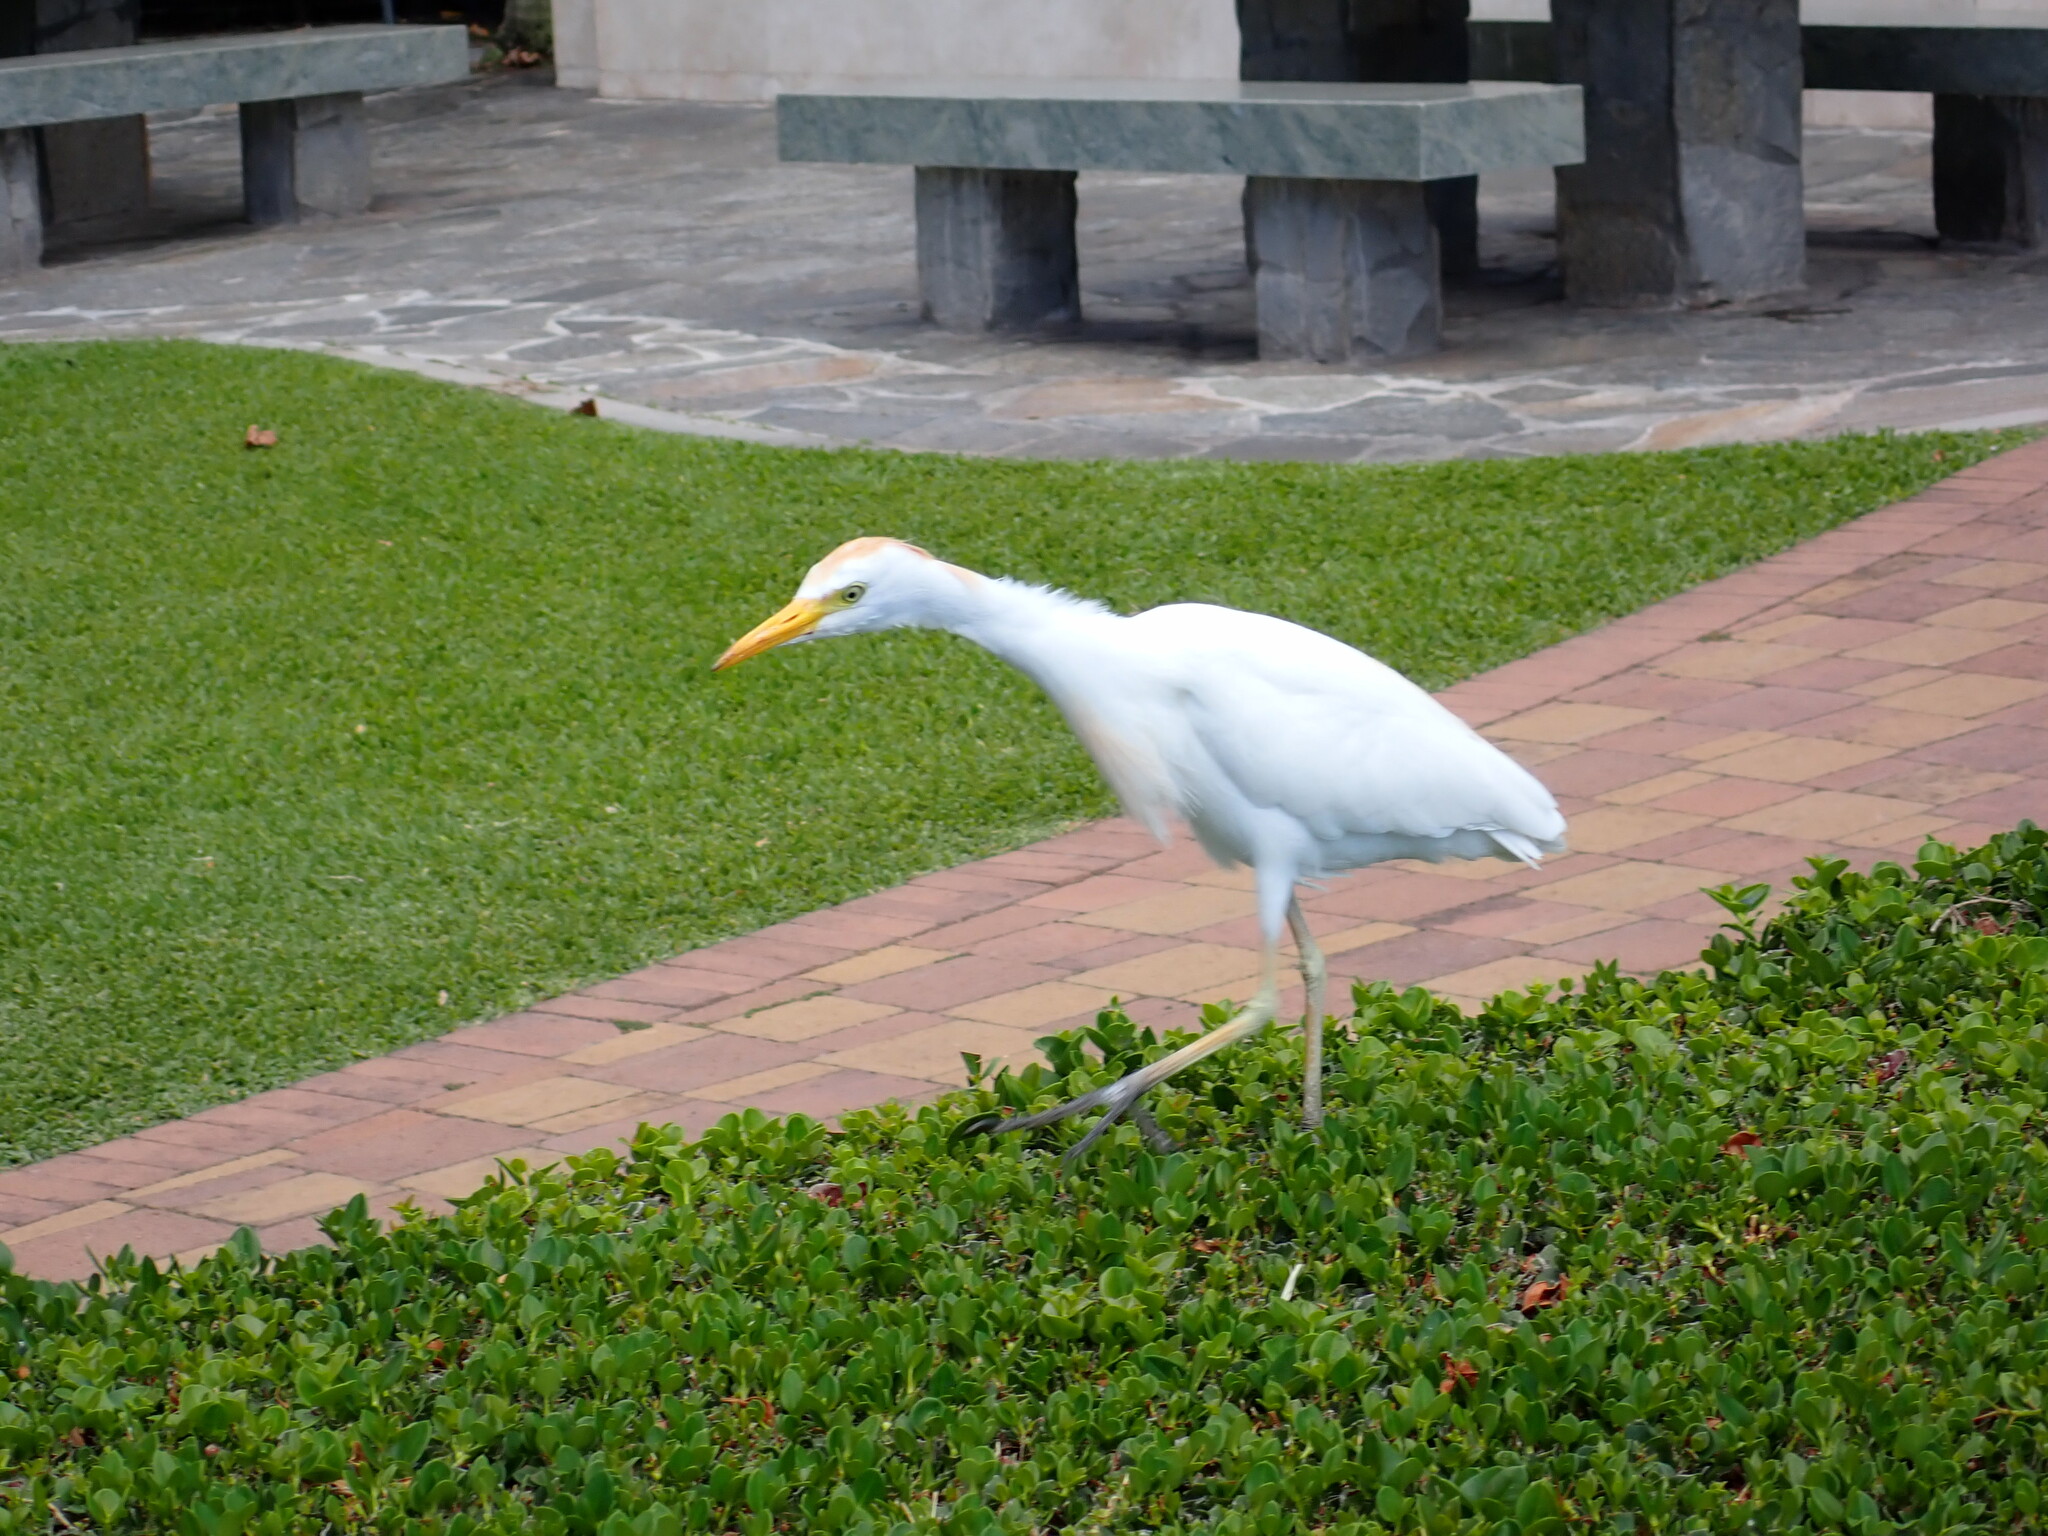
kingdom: Animalia
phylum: Chordata
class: Aves
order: Pelecaniformes
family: Ardeidae
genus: Bubulcus
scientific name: Bubulcus ibis
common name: Cattle egret
